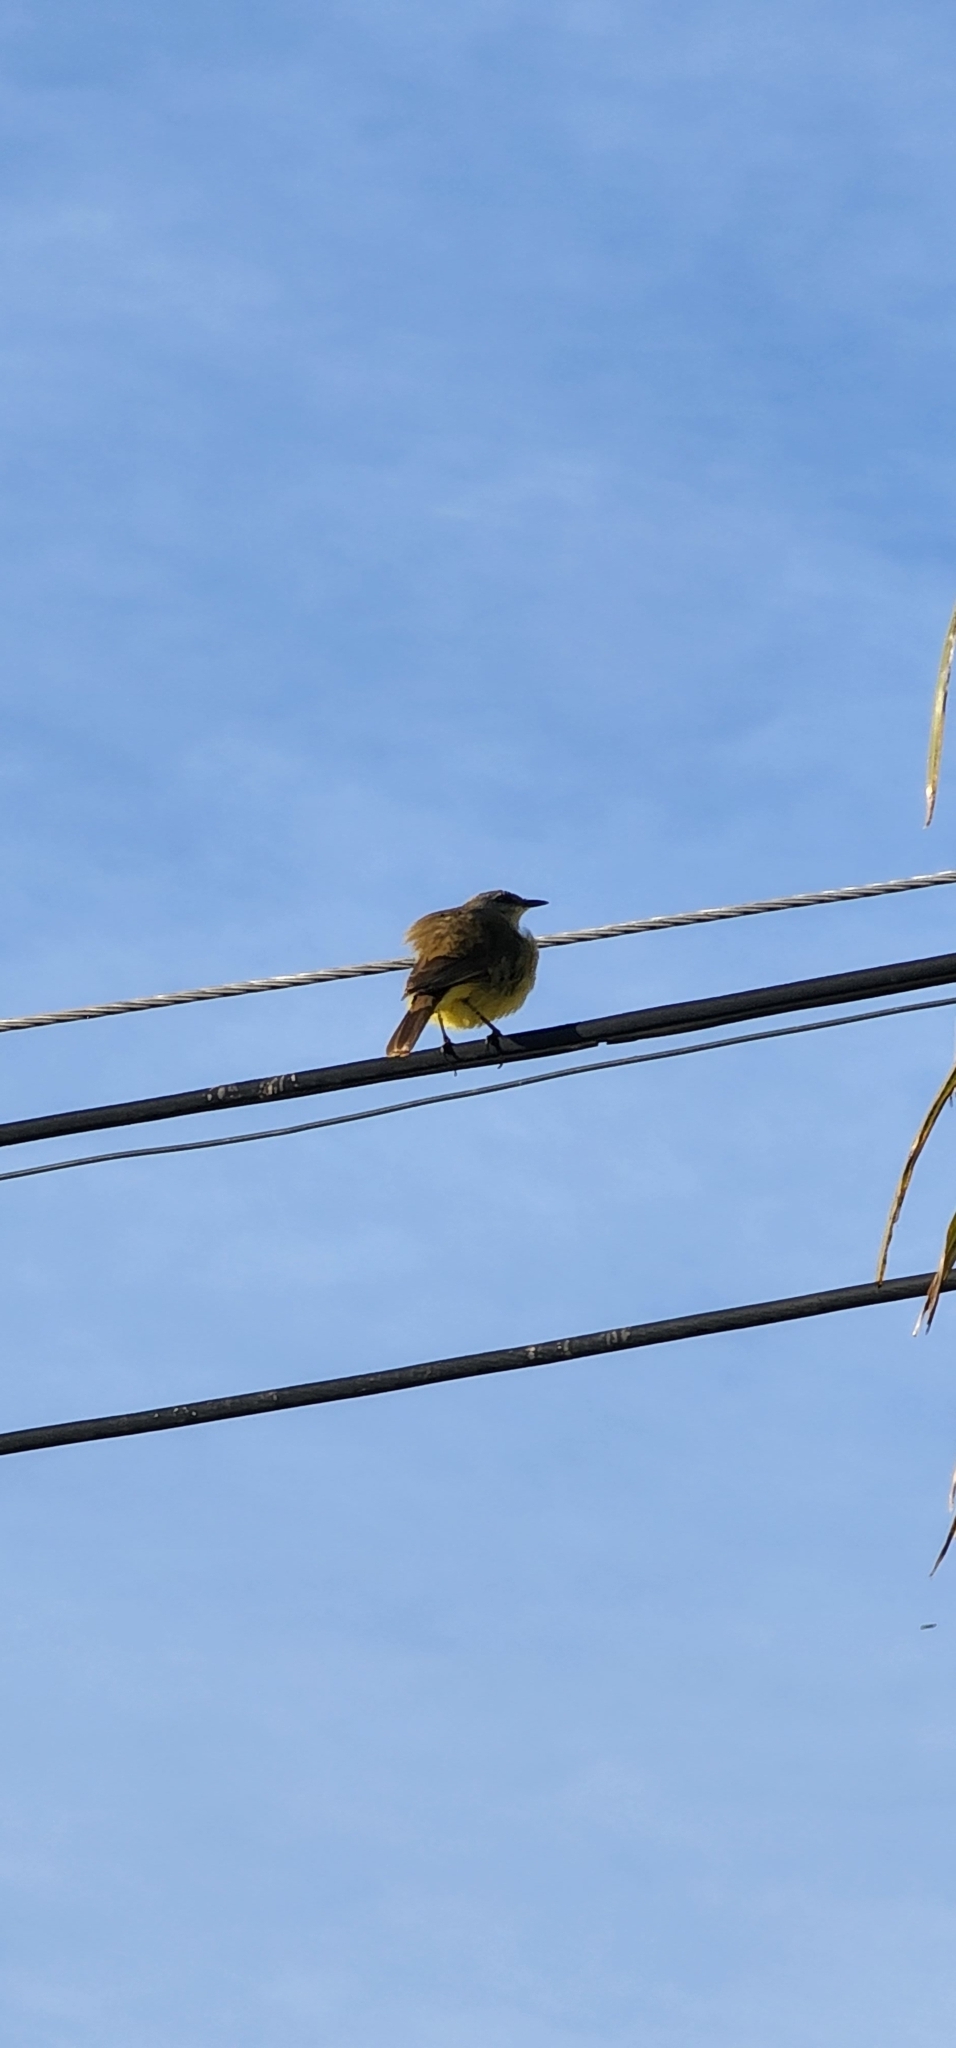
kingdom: Animalia
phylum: Chordata
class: Aves
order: Passeriformes
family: Tyrannidae
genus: Machetornis
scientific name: Machetornis rixosa
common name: Cattle tyrant
